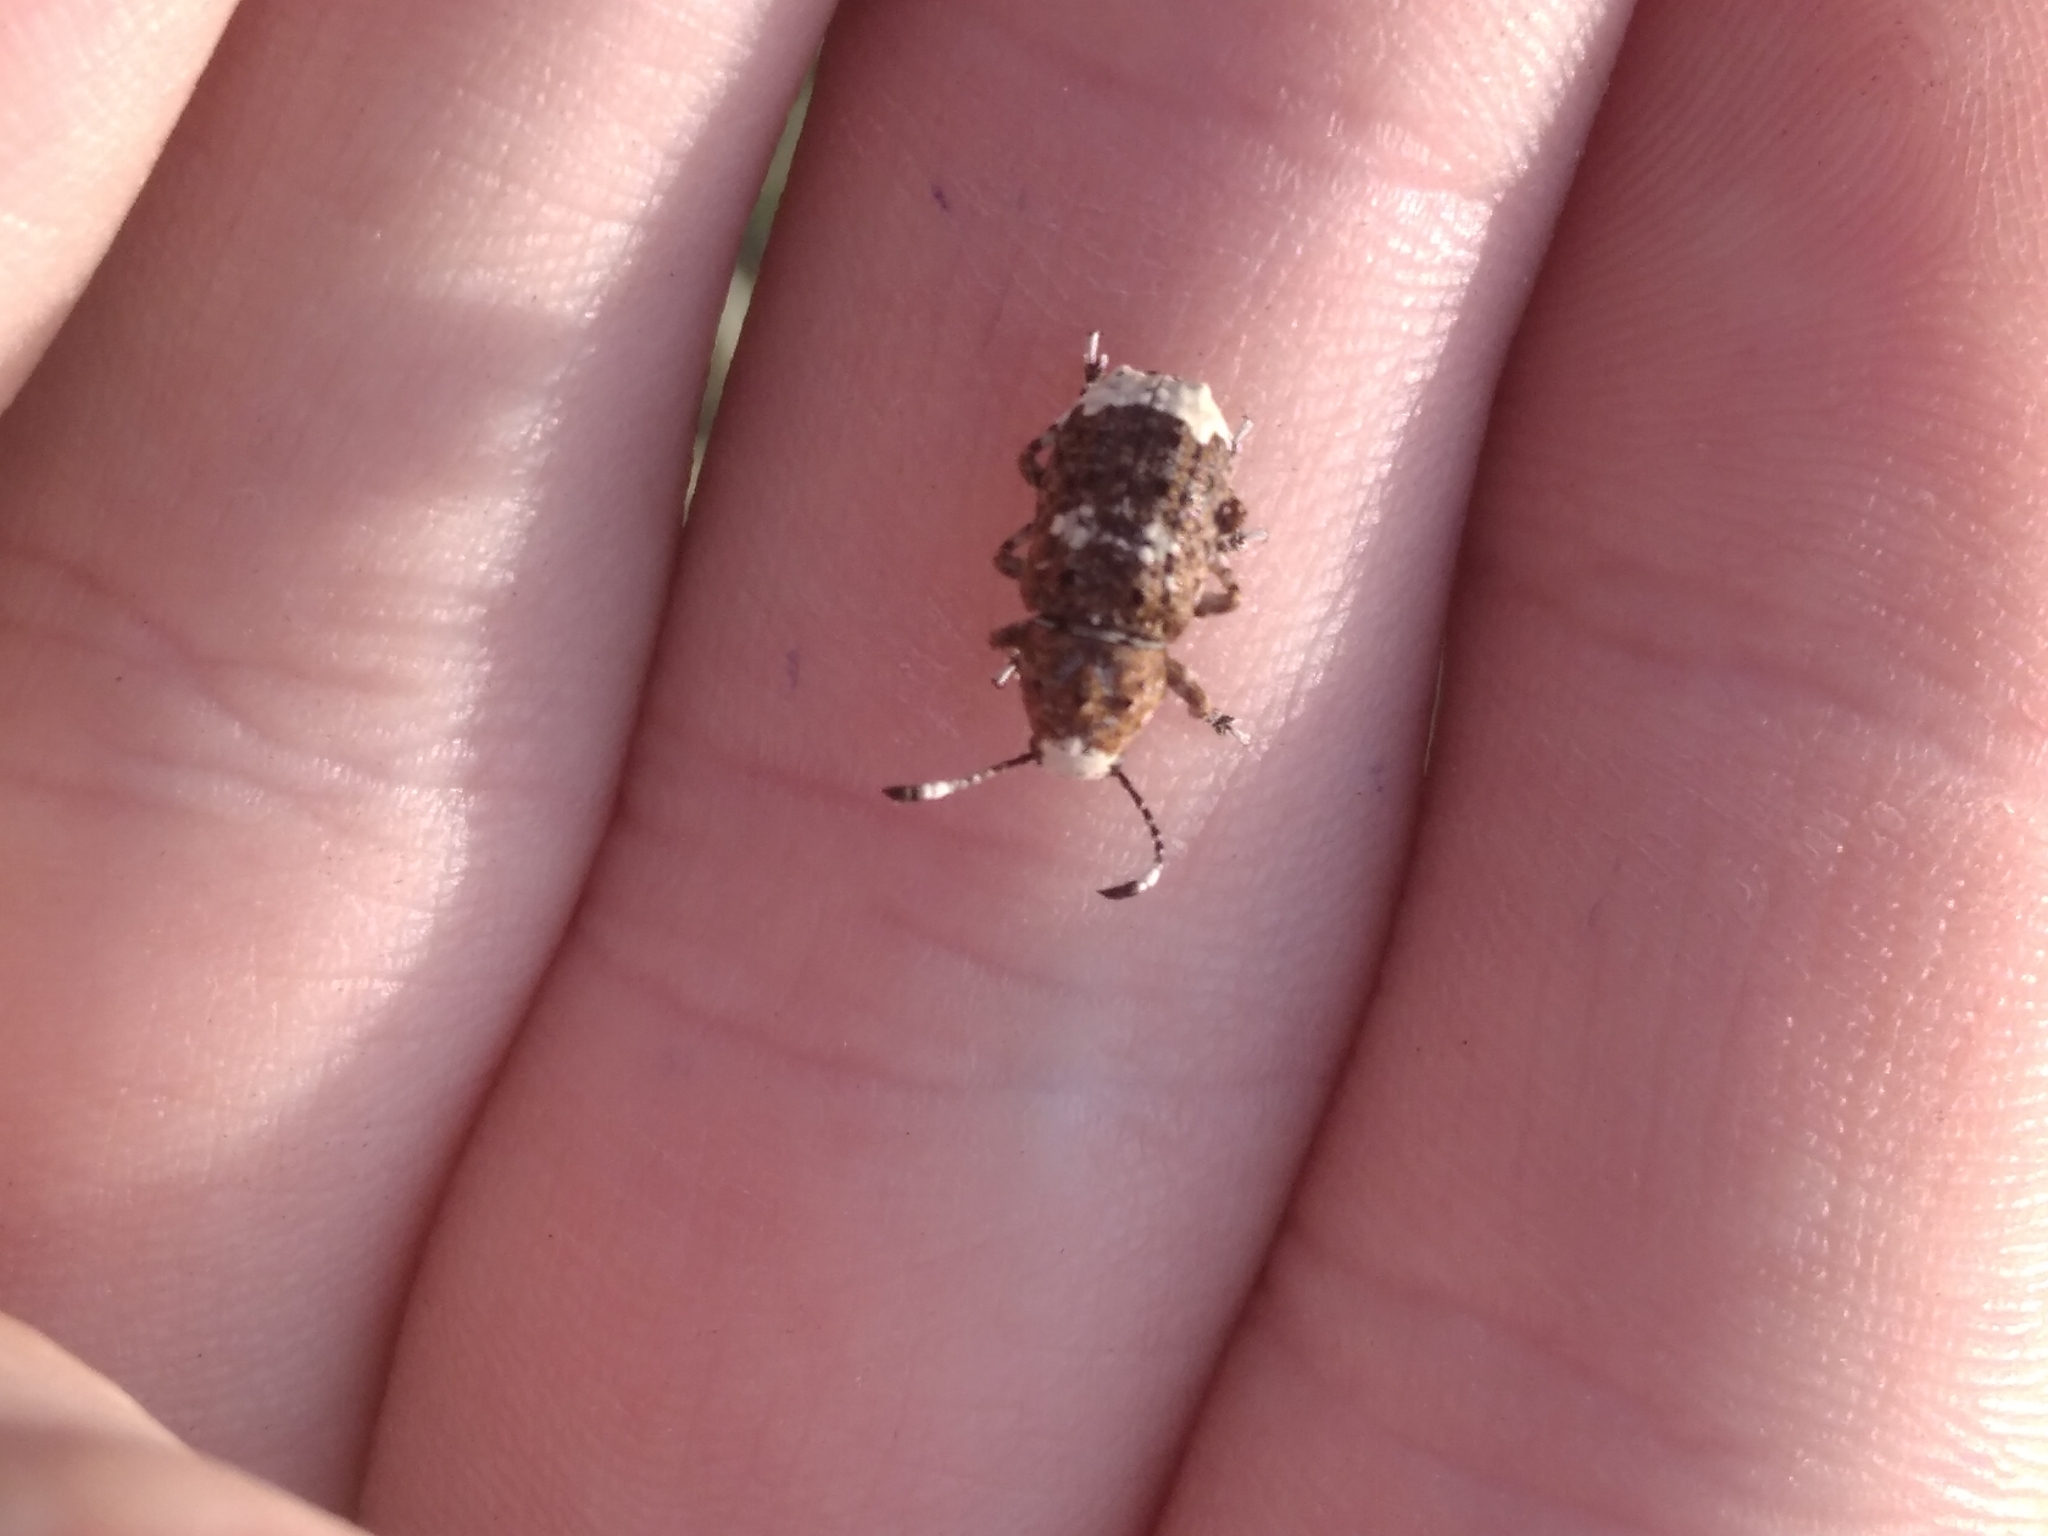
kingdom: Animalia
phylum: Arthropoda
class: Insecta
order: Coleoptera
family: Anthribidae
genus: Platystomos
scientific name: Platystomos albinus
